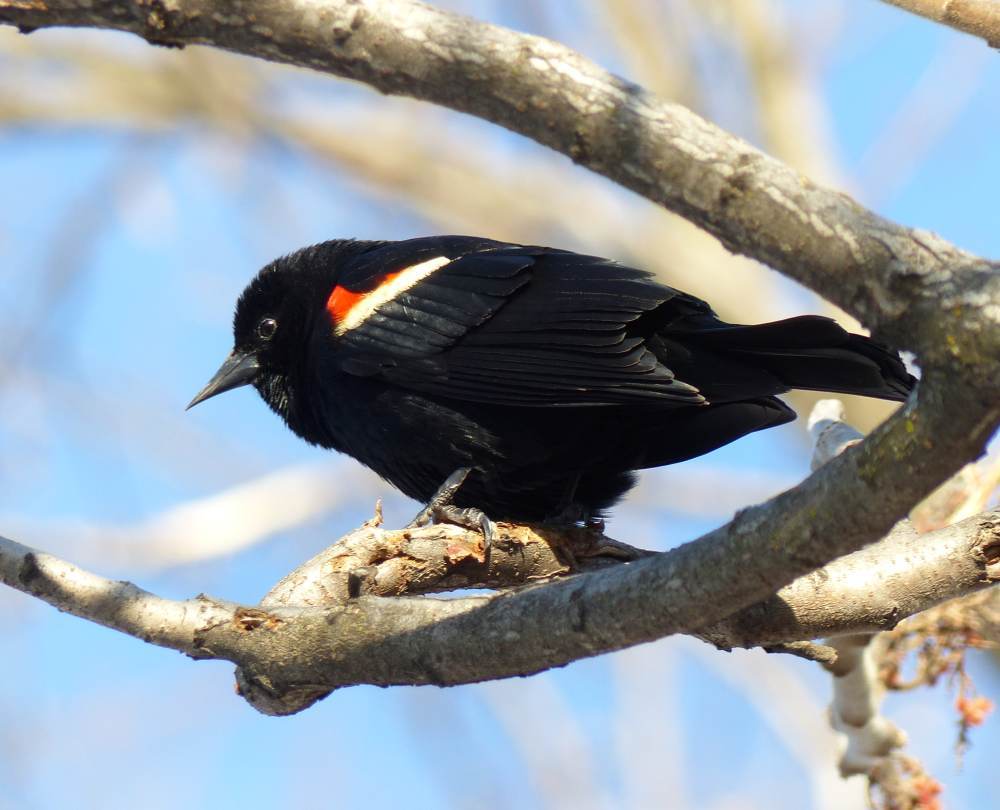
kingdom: Animalia
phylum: Chordata
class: Aves
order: Passeriformes
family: Icteridae
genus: Agelaius
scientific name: Agelaius phoeniceus
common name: Red-winged blackbird
